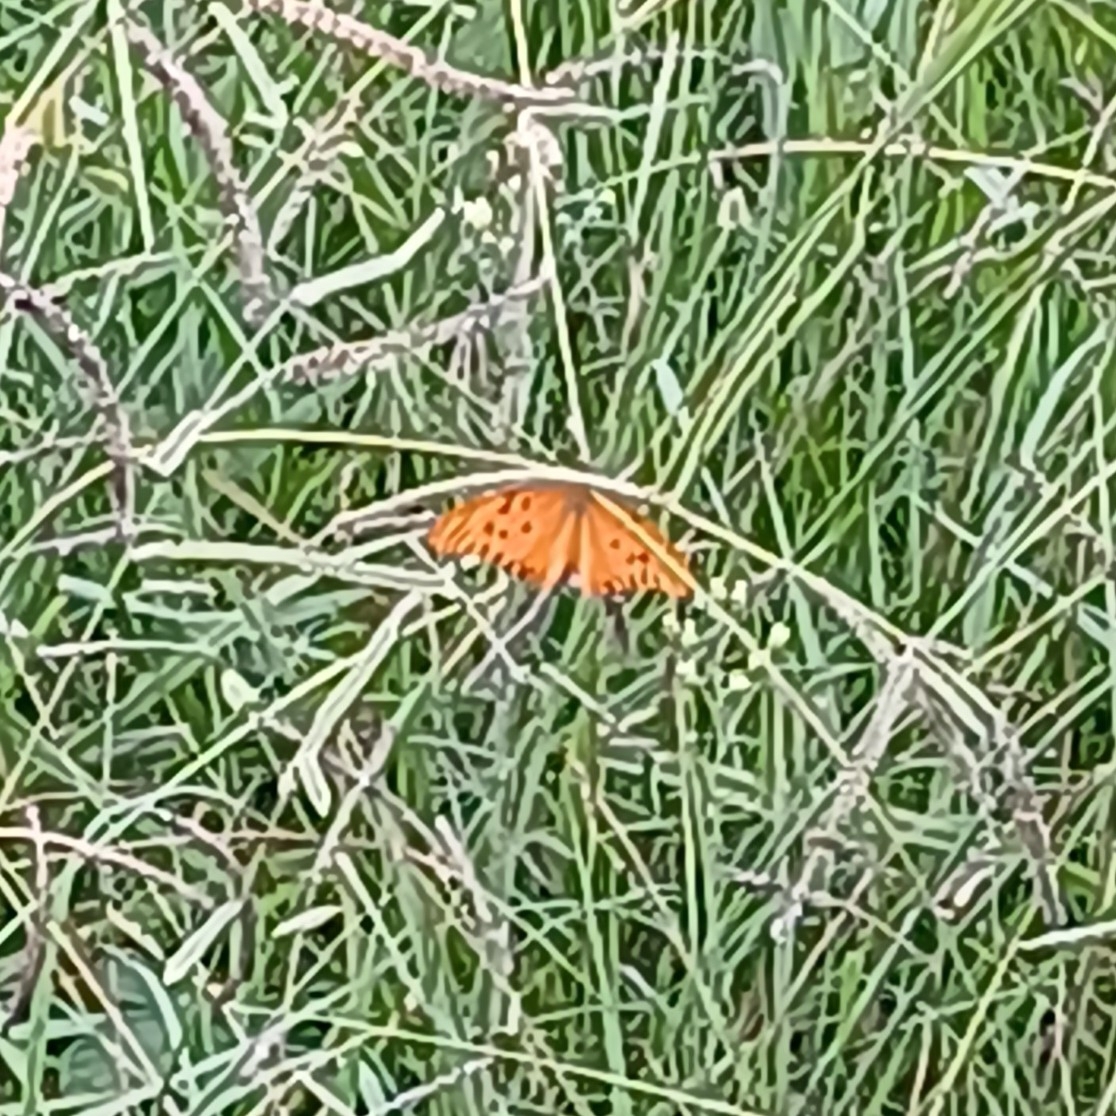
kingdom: Animalia
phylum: Arthropoda
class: Insecta
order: Lepidoptera
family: Nymphalidae
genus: Dione
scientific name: Dione vanillae
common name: Gulf fritillary
